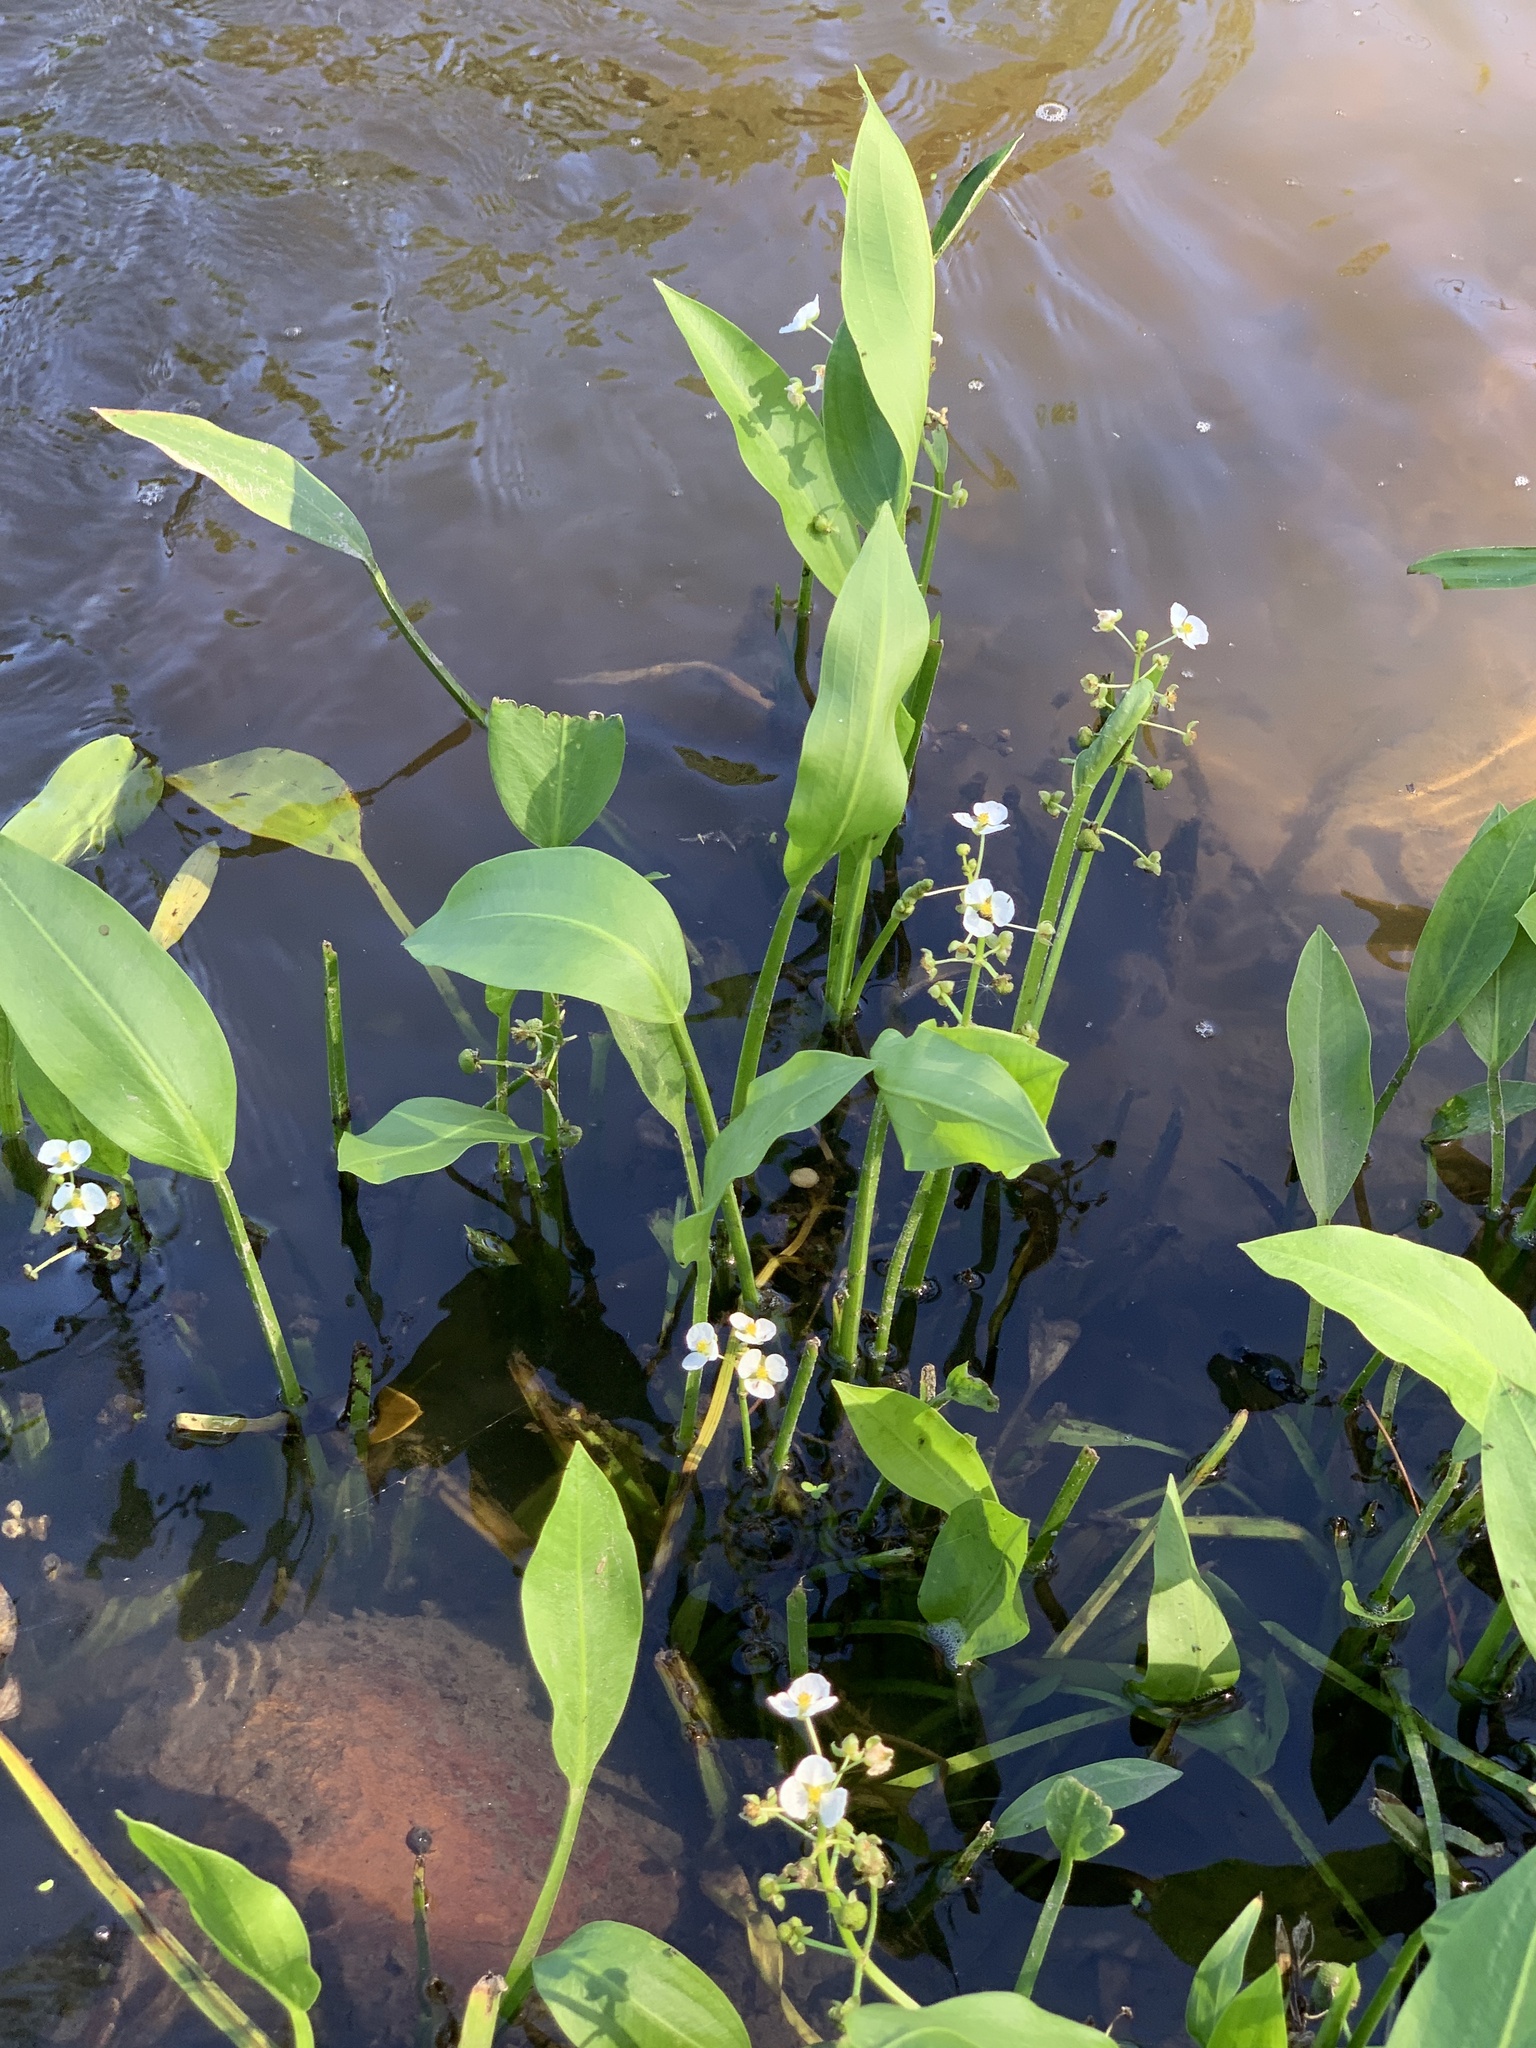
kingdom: Plantae
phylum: Tracheophyta
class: Liliopsida
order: Alismatales
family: Alismataceae
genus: Sagittaria
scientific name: Sagittaria platyphylla
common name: Broad-leaf arrowhead
